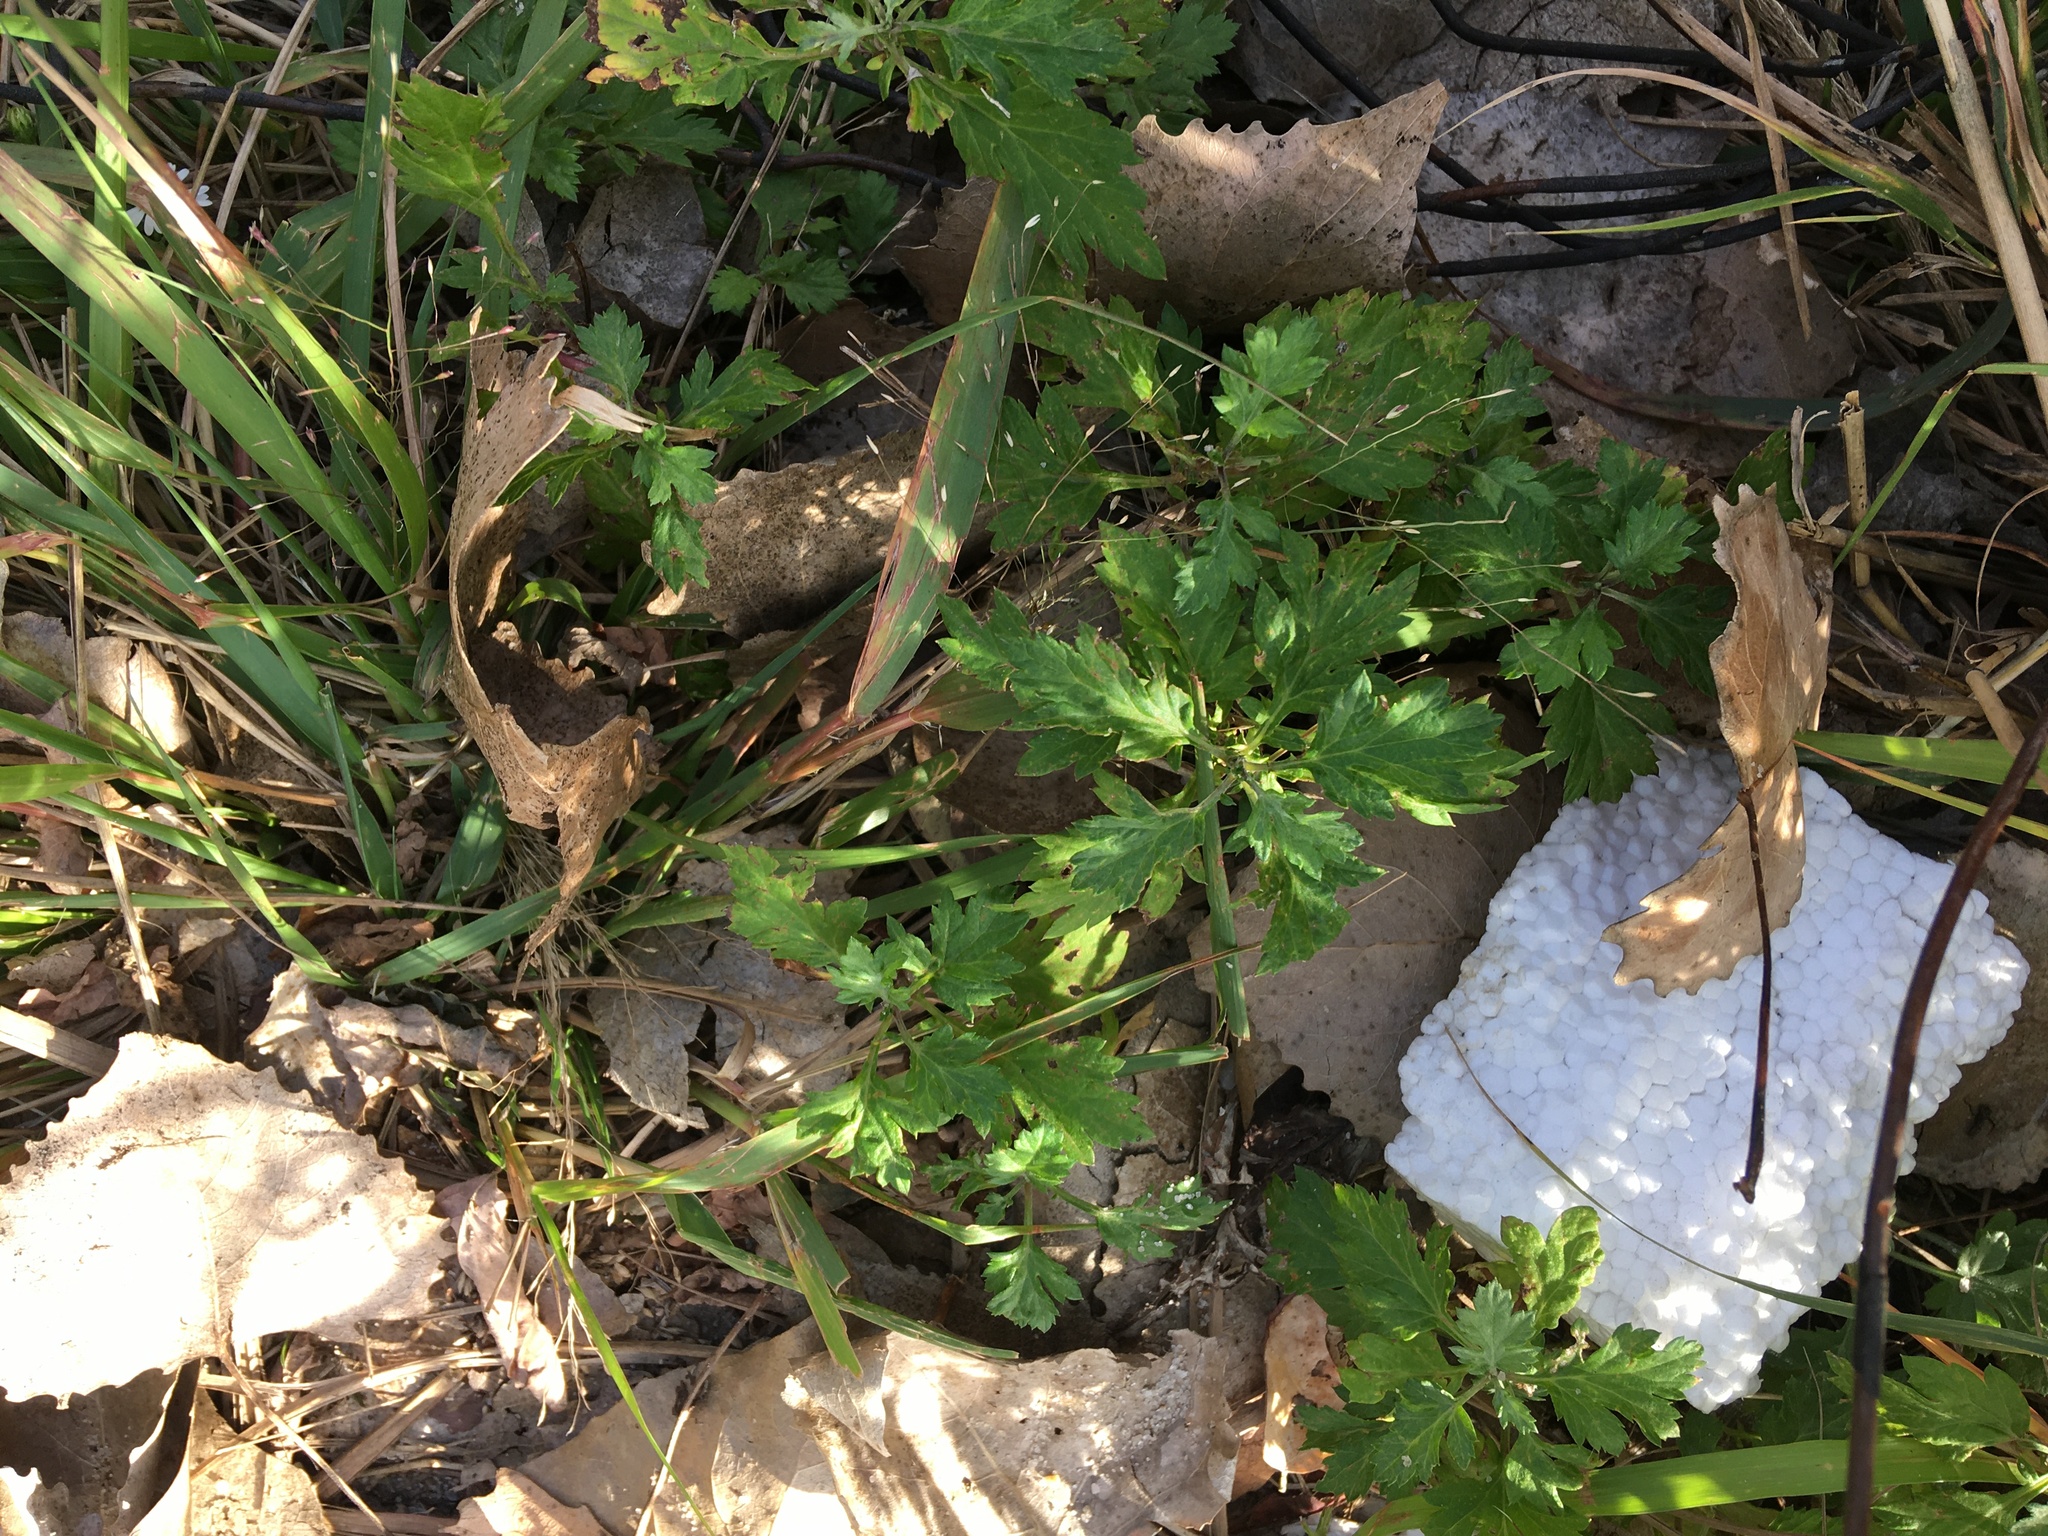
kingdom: Plantae
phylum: Tracheophyta
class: Magnoliopsida
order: Asterales
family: Asteraceae
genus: Artemisia
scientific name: Artemisia vulgaris
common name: Mugwort
